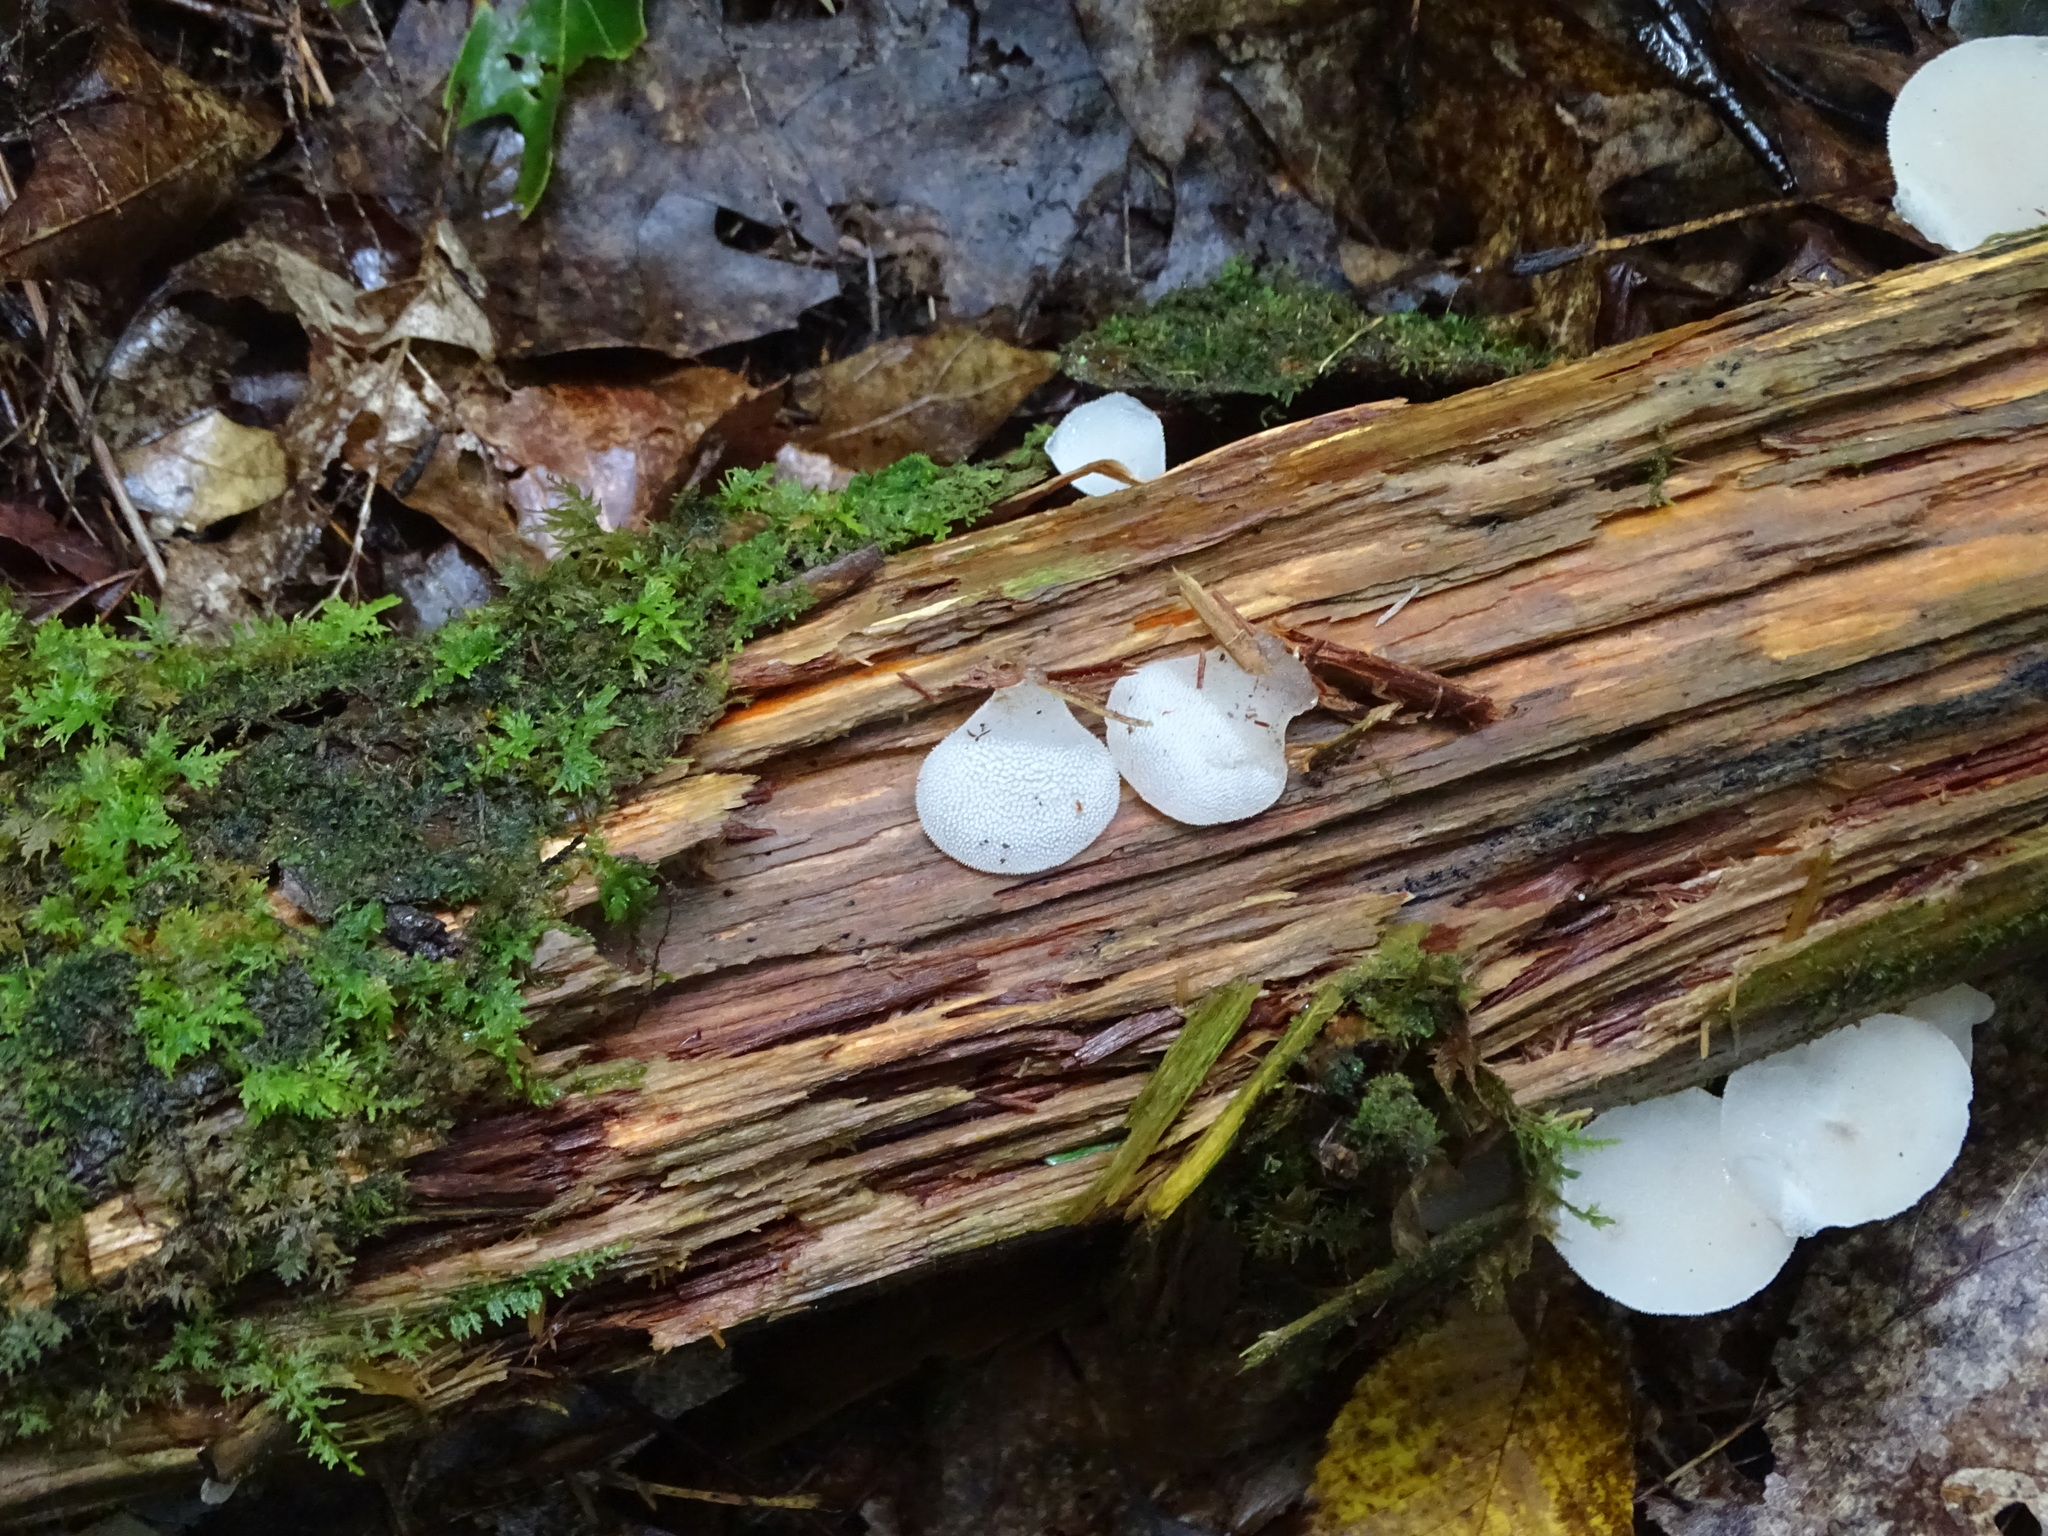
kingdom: Fungi
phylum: Basidiomycota
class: Agaricomycetes
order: Auriculariales
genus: Pseudohydnum
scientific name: Pseudohydnum gelatinosum
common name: Jelly tongue
